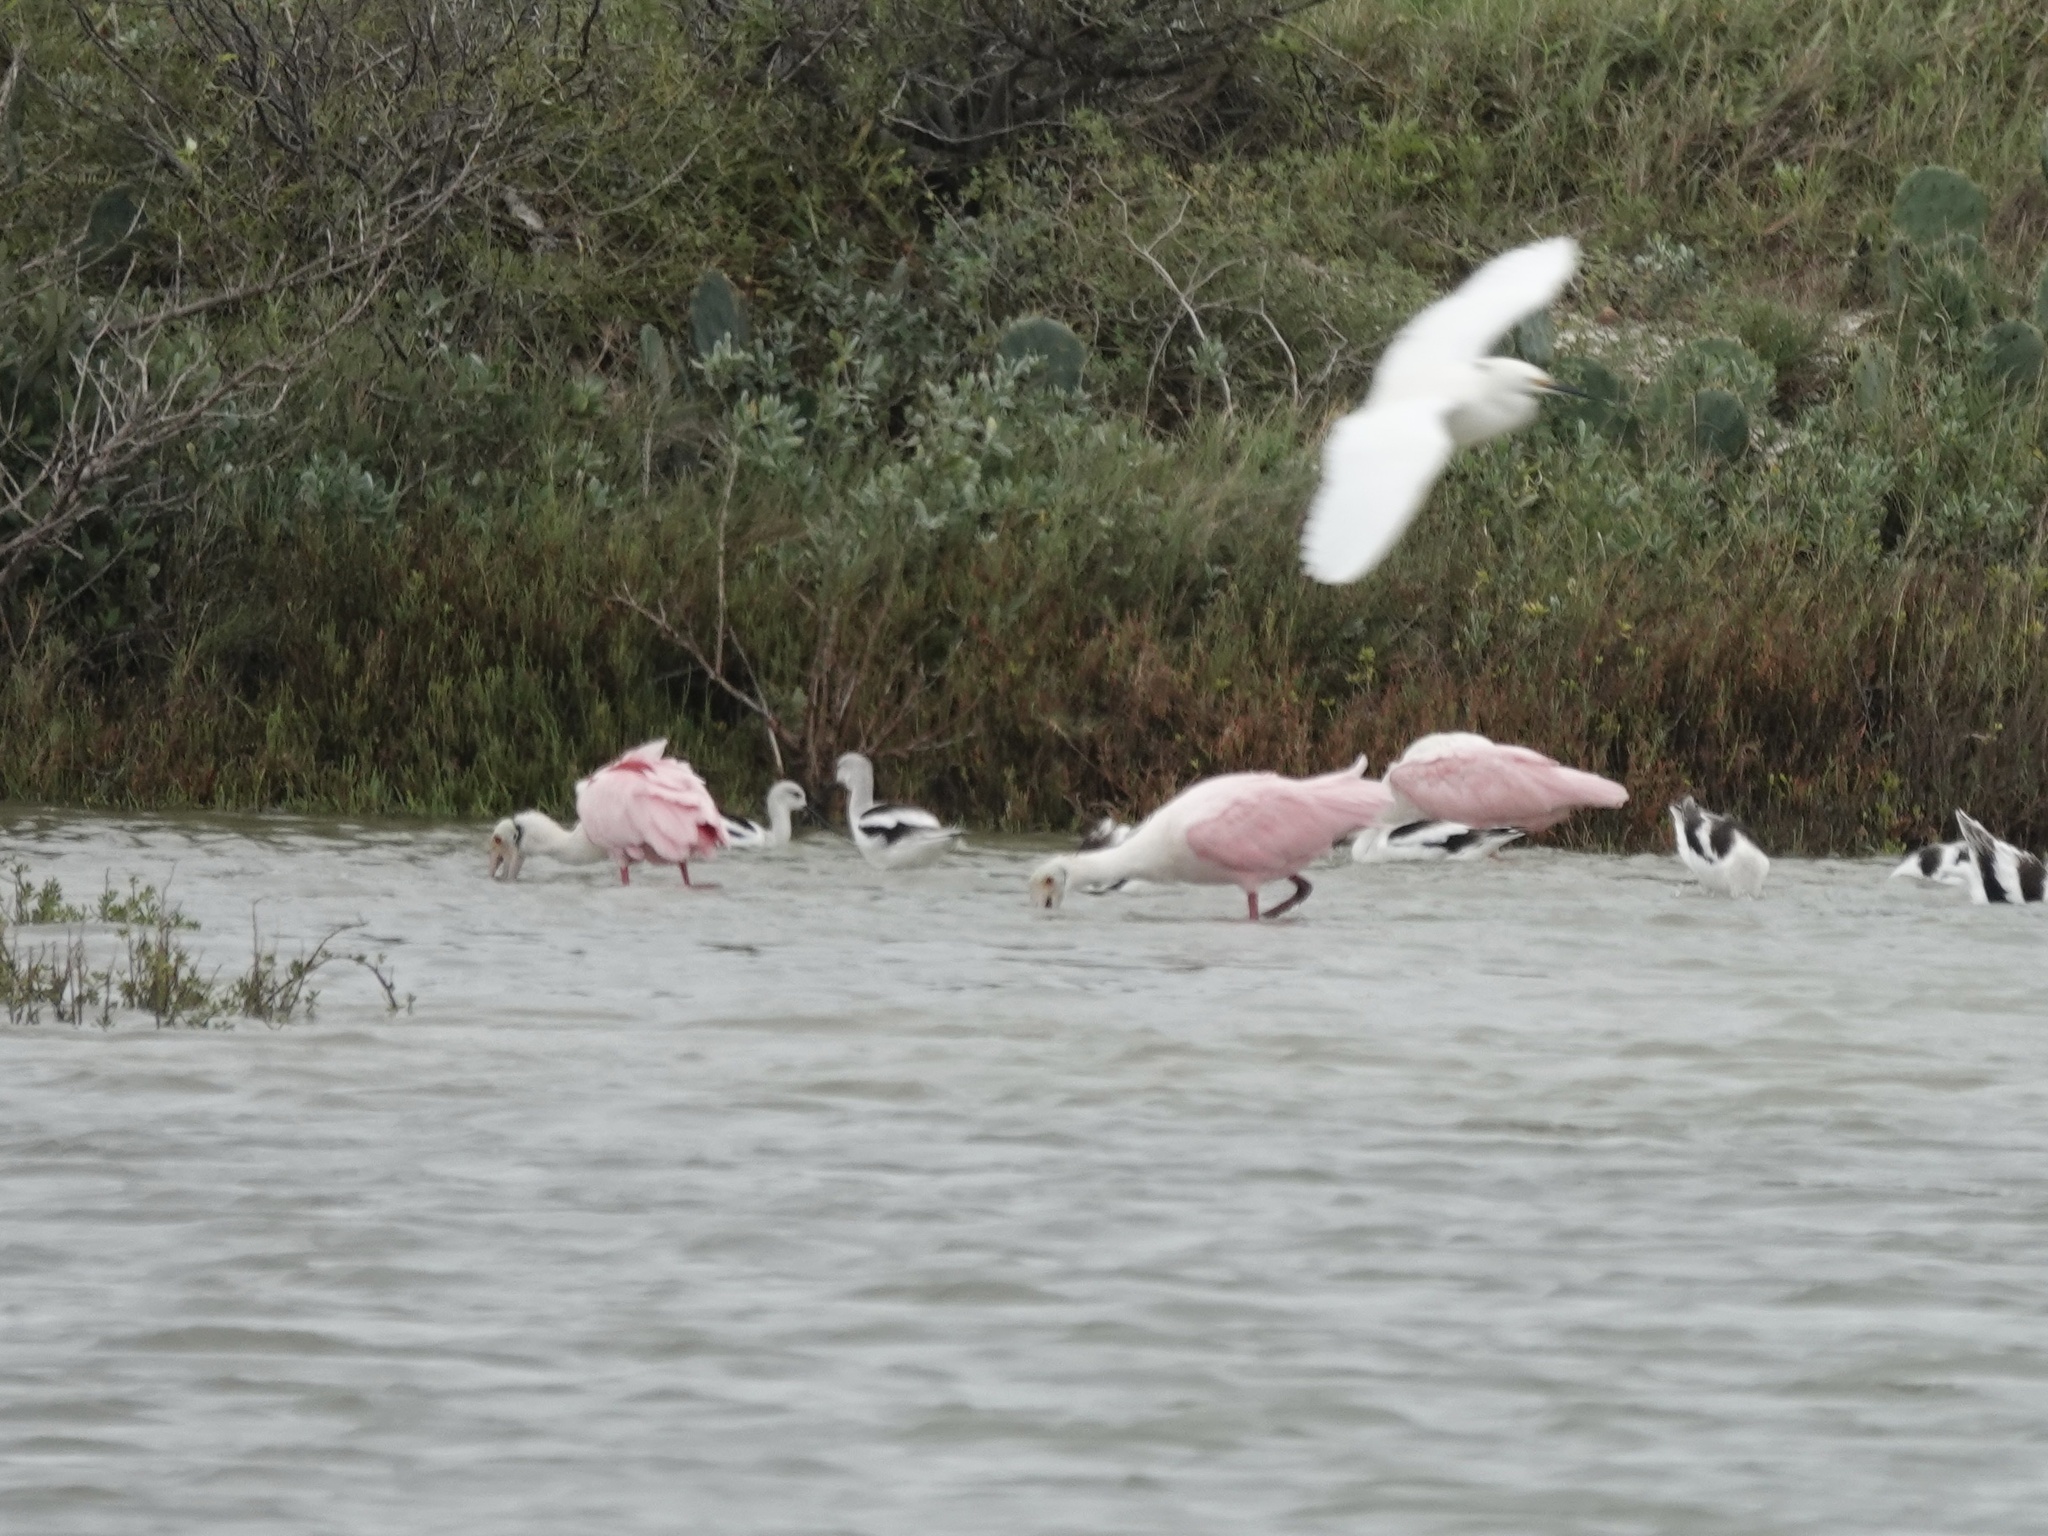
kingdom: Animalia
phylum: Chordata
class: Aves
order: Pelecaniformes
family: Threskiornithidae
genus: Platalea
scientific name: Platalea ajaja
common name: Roseate spoonbill
